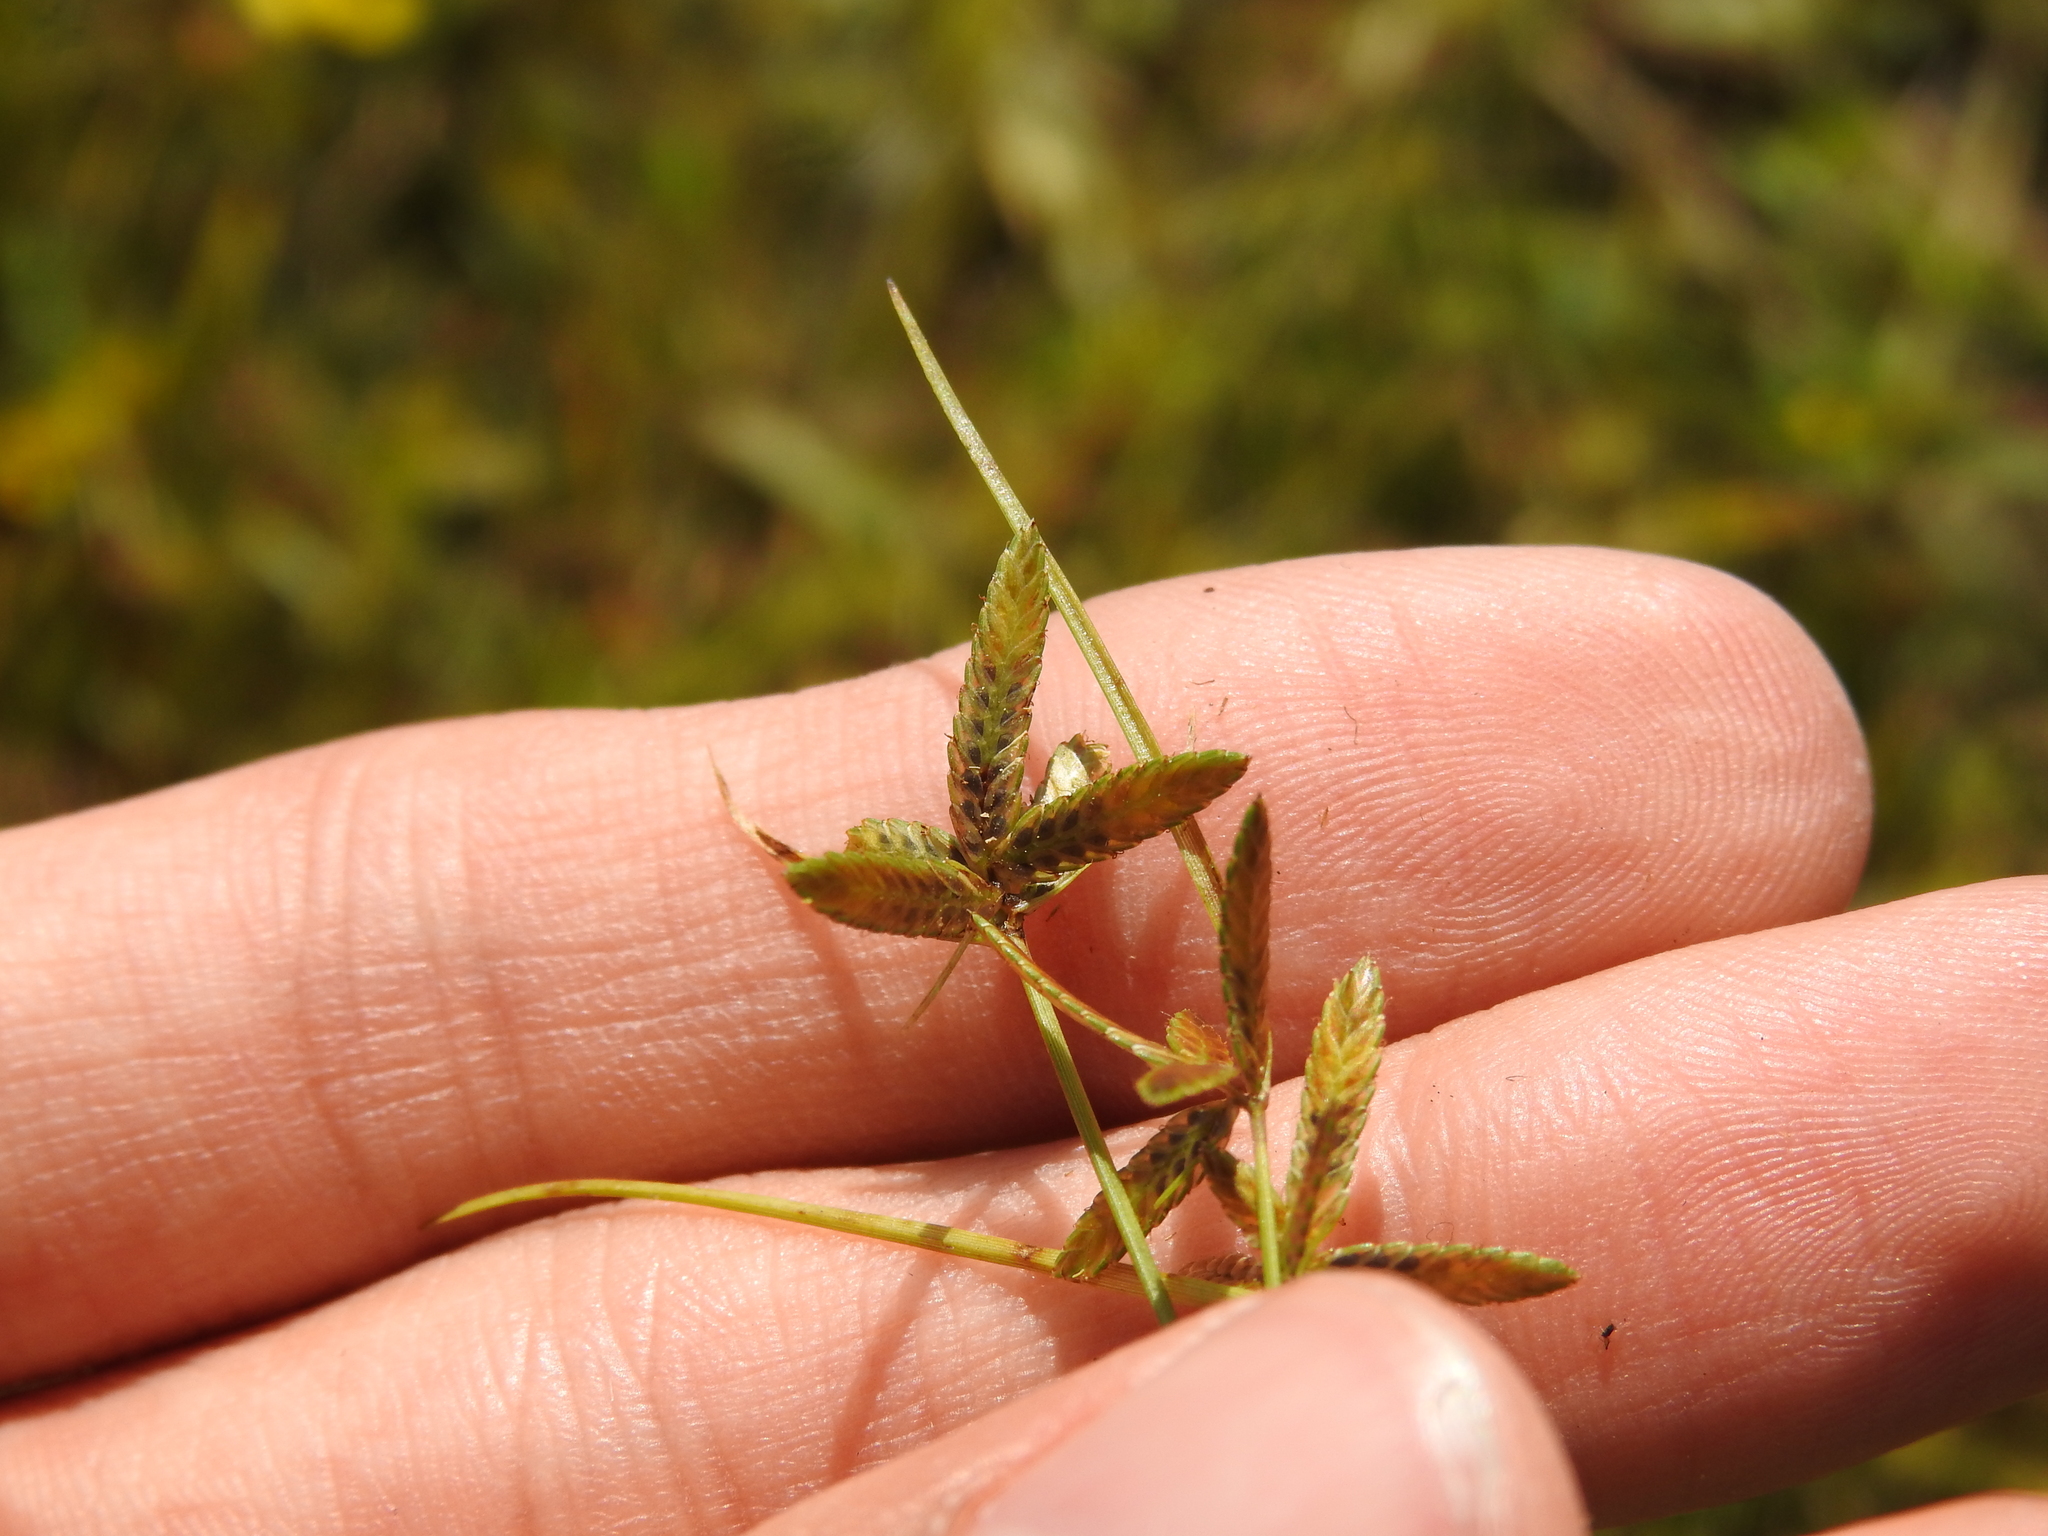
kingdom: Plantae
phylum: Tracheophyta
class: Liliopsida
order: Poales
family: Cyperaceae
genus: Cyperus
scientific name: Cyperus flavescens
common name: Yellow galingale
